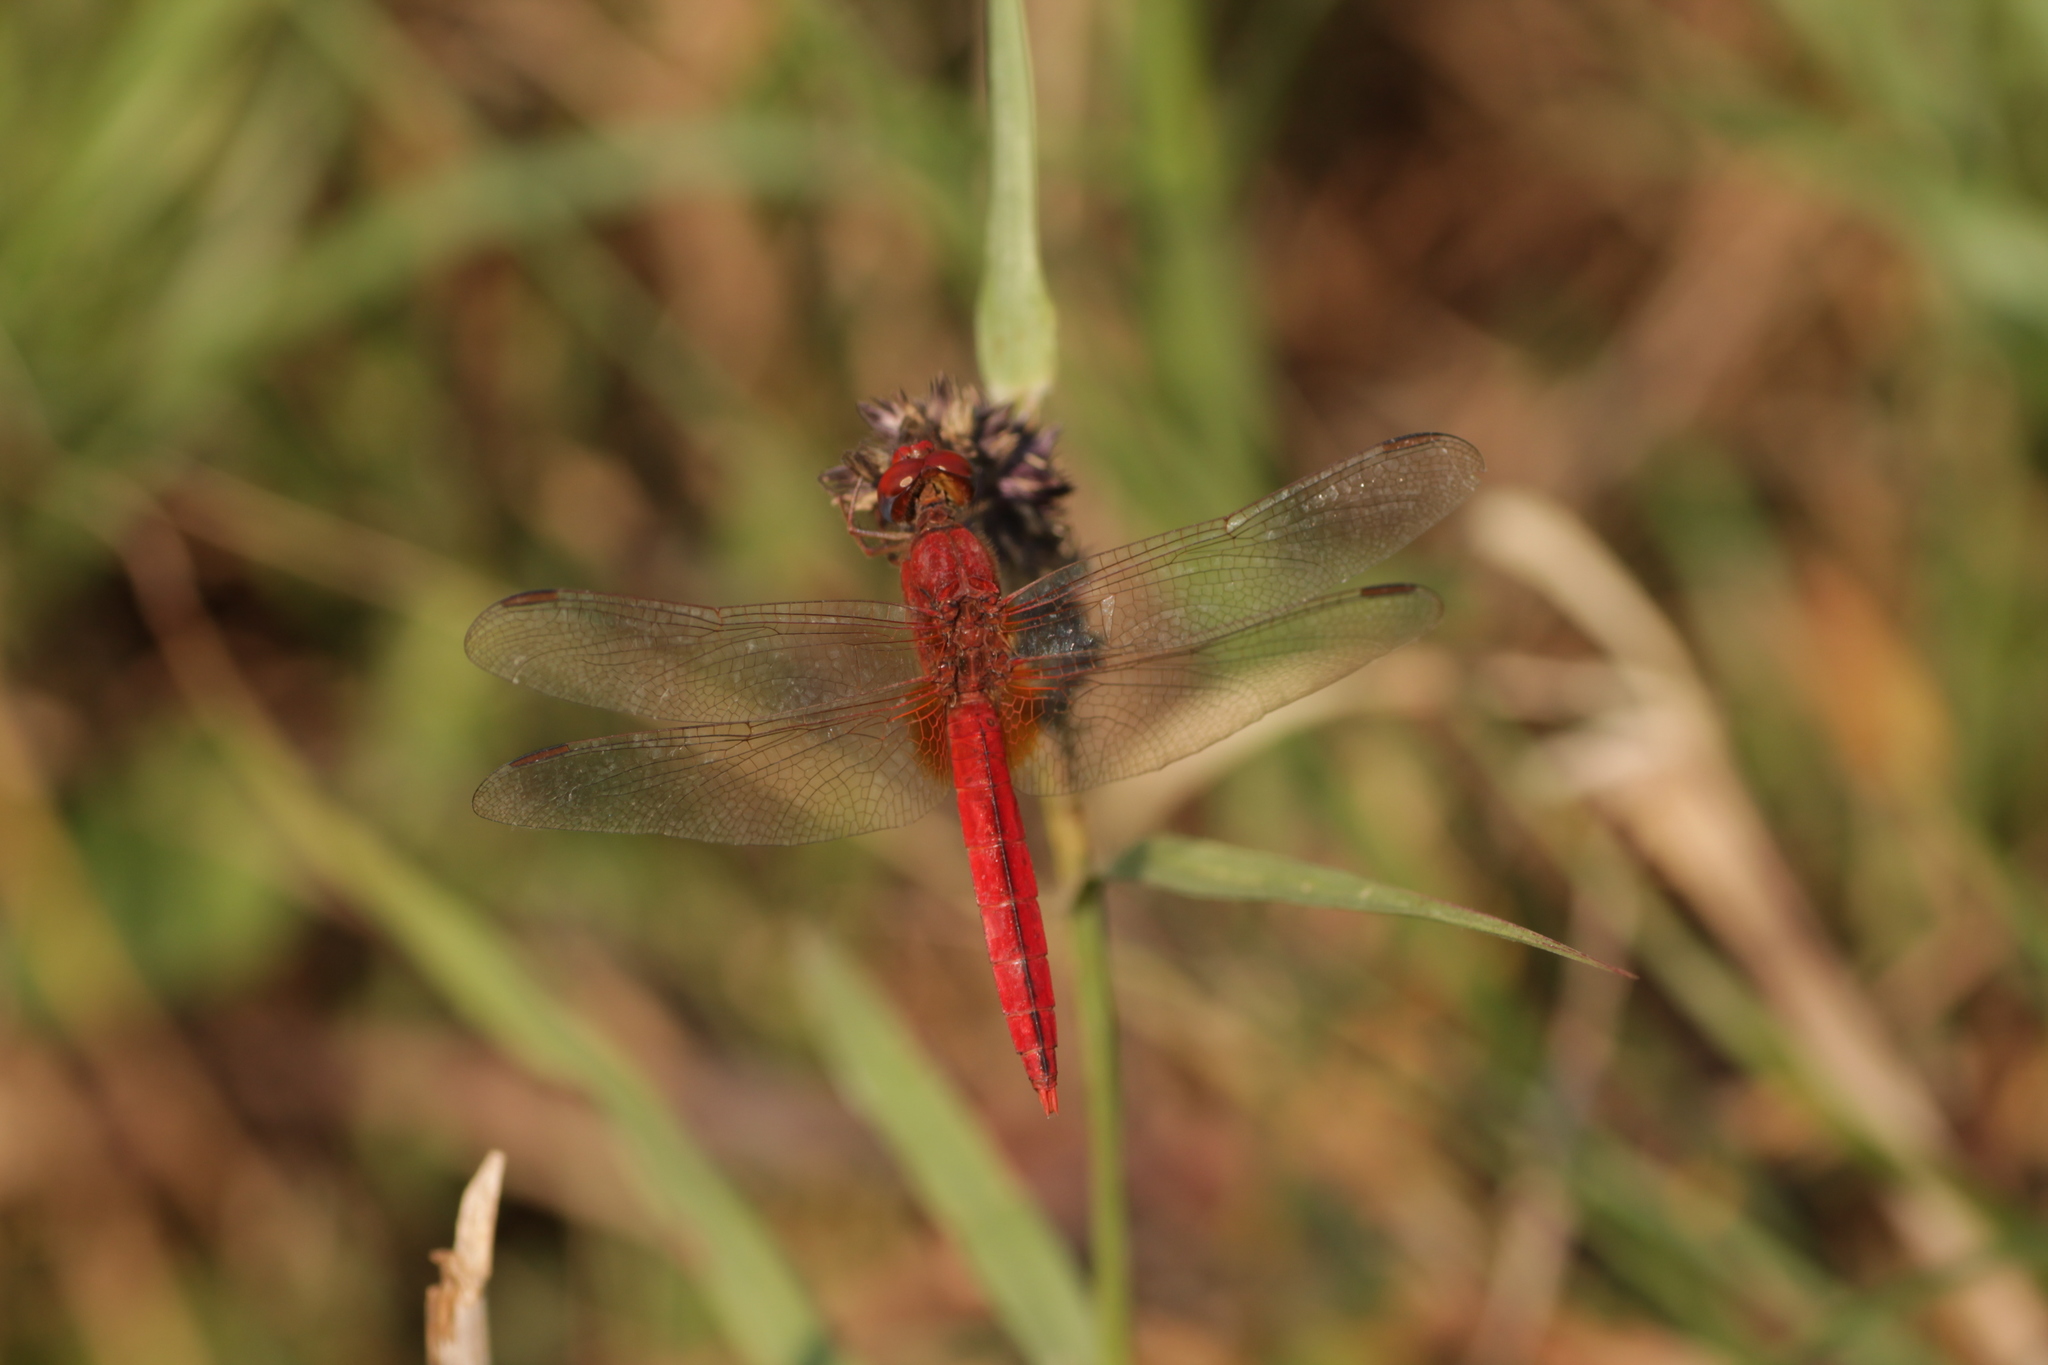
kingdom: Animalia
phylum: Arthropoda
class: Insecta
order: Odonata
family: Libellulidae
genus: Crocothemis
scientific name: Crocothemis servilia
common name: Scarlet skimmer
